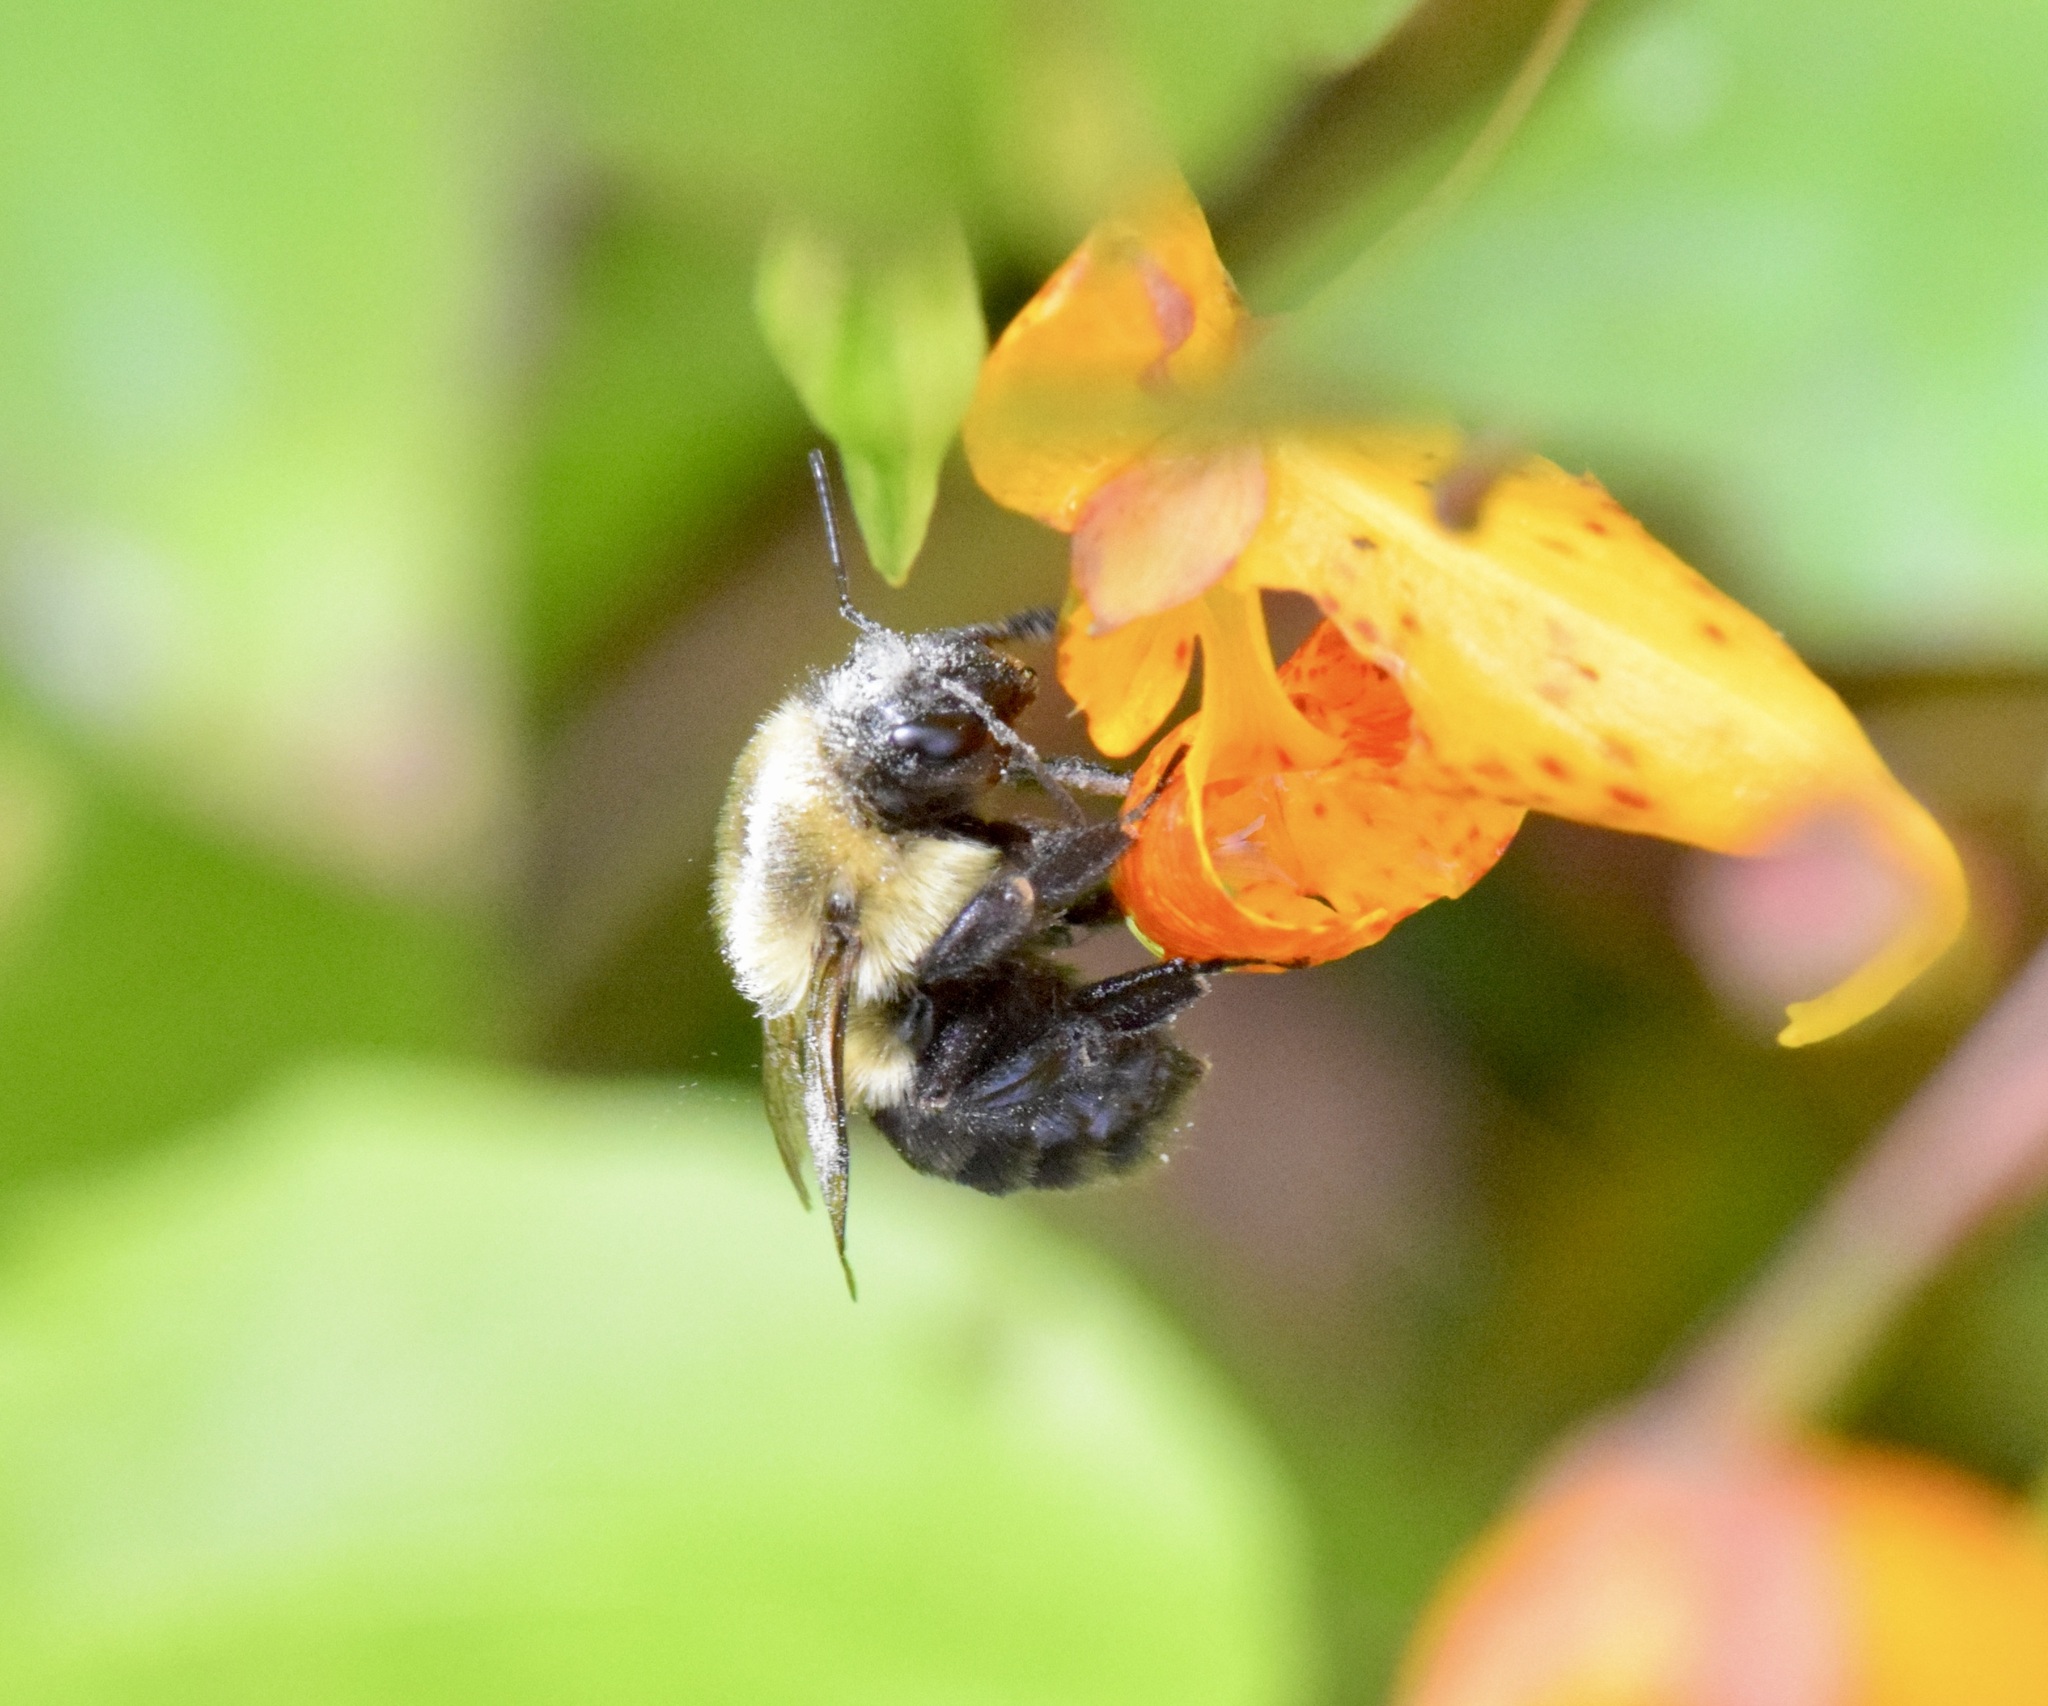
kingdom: Animalia
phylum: Arthropoda
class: Insecta
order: Hymenoptera
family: Apidae
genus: Bombus
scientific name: Bombus impatiens
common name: Common eastern bumble bee
